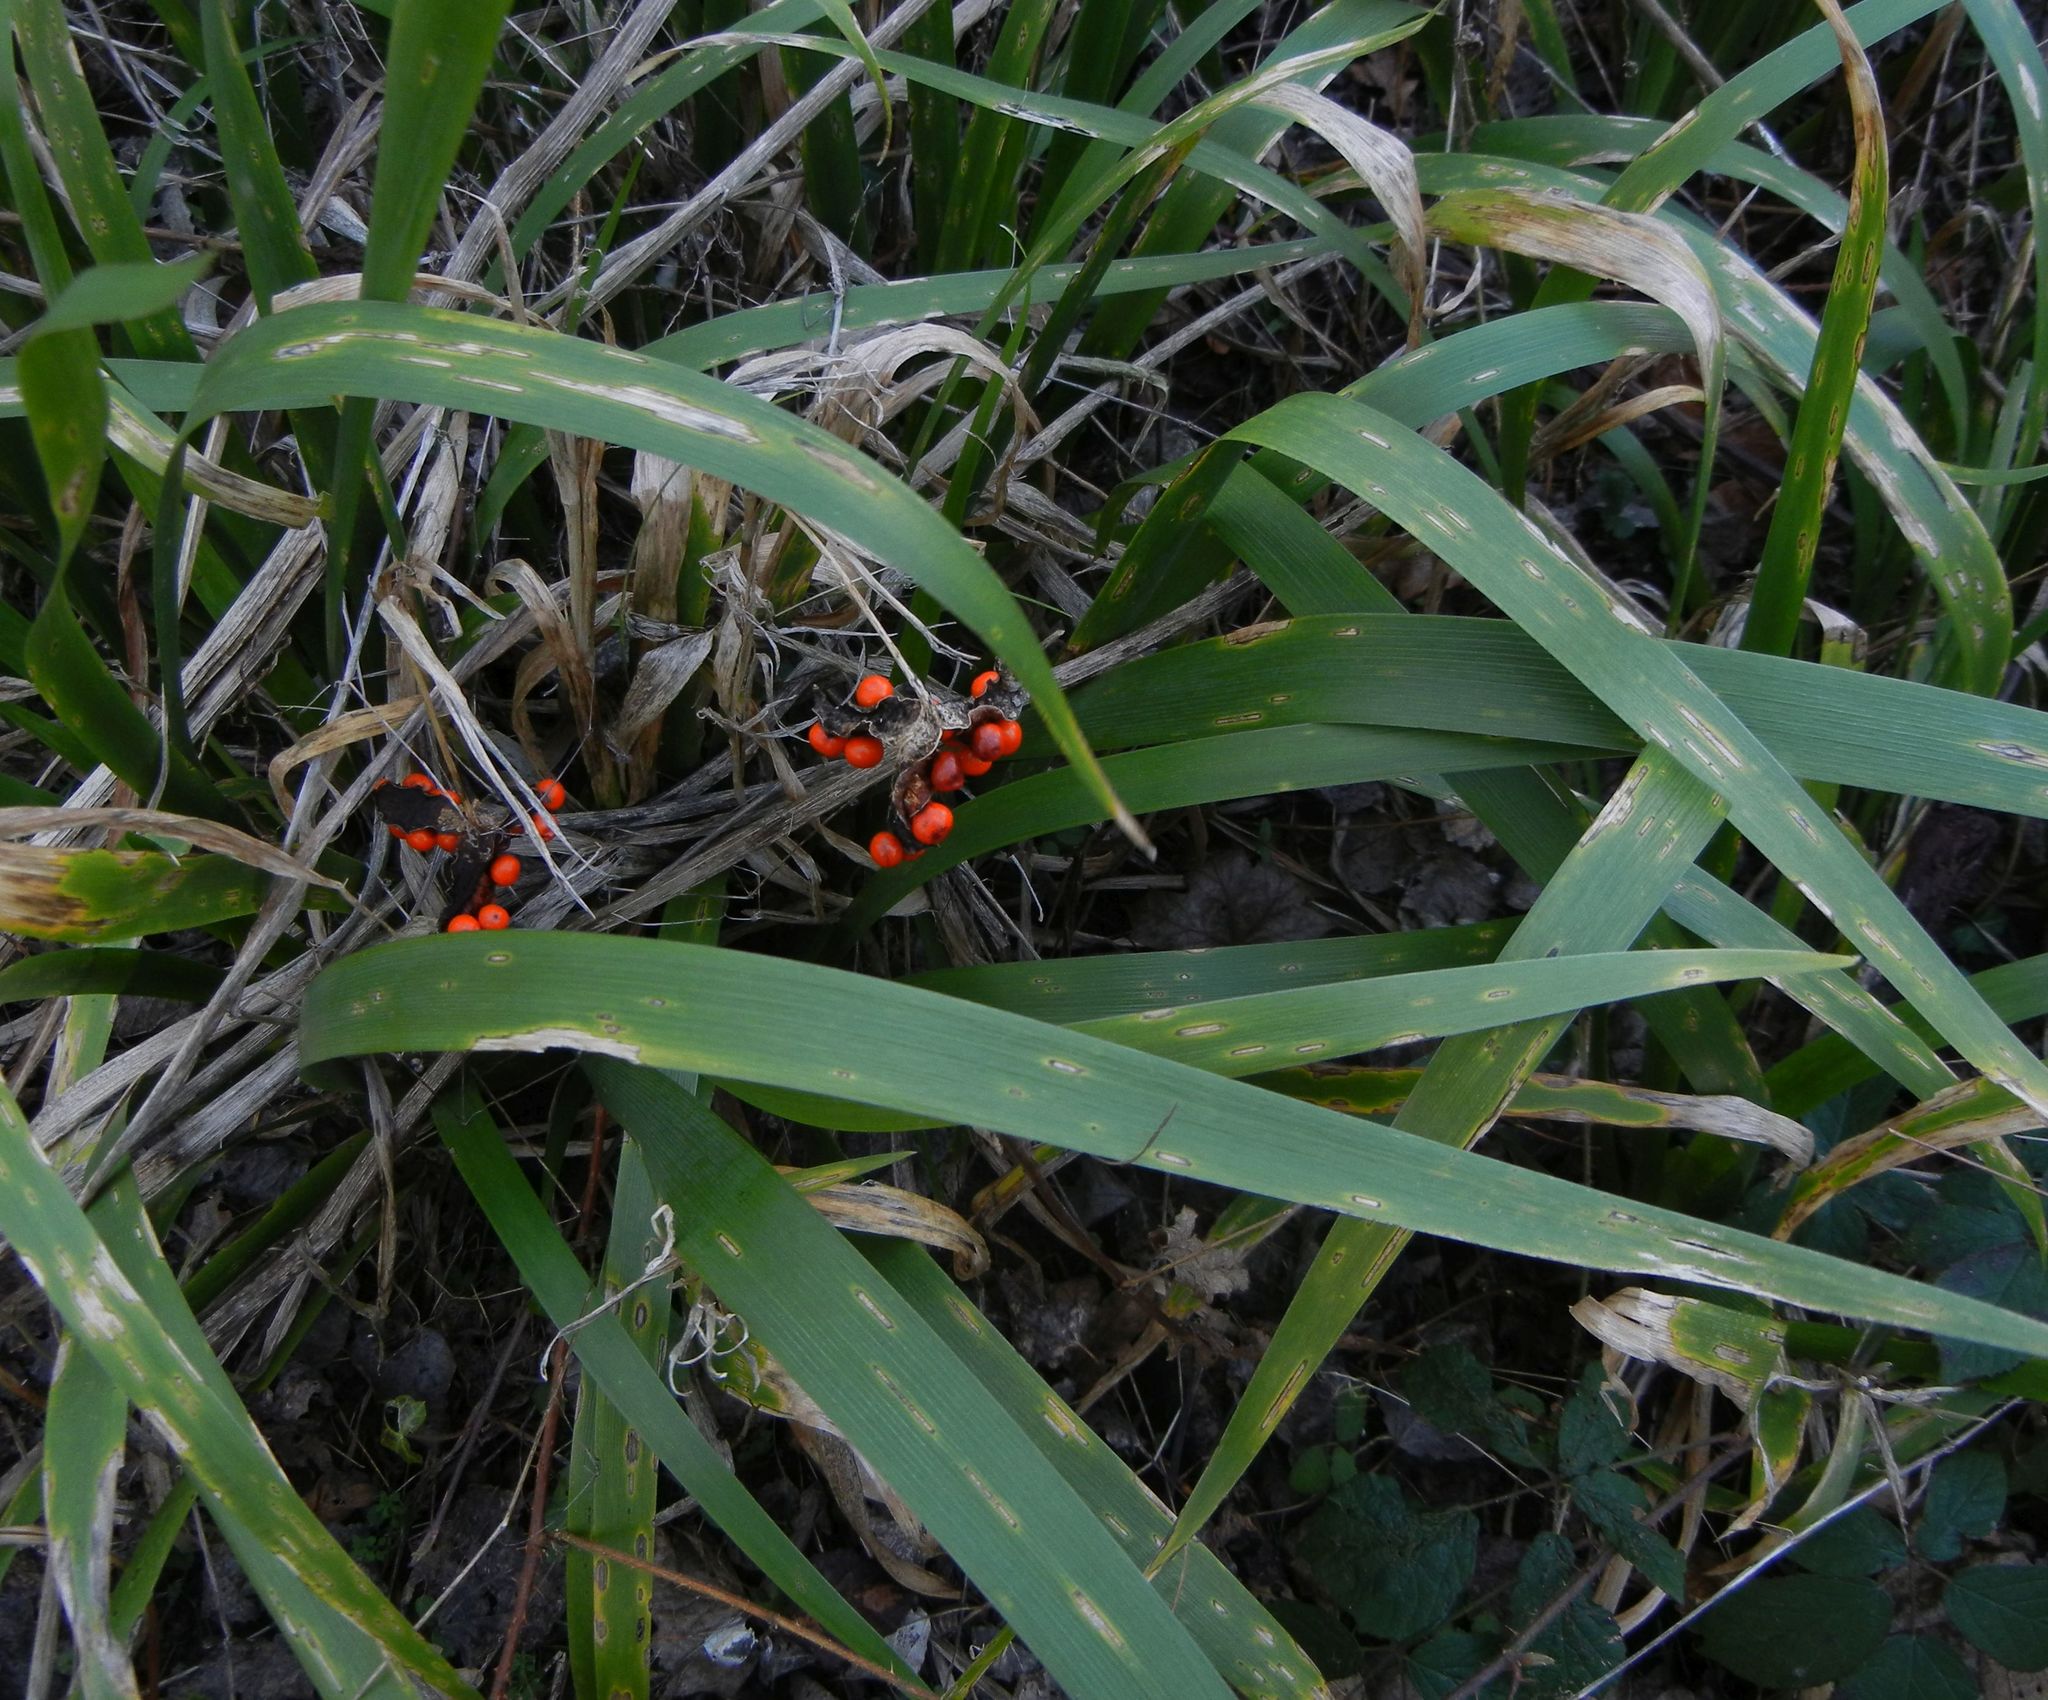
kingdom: Plantae
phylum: Tracheophyta
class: Liliopsida
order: Asparagales
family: Iridaceae
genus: Iris
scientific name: Iris foetidissima
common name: Stinking iris
